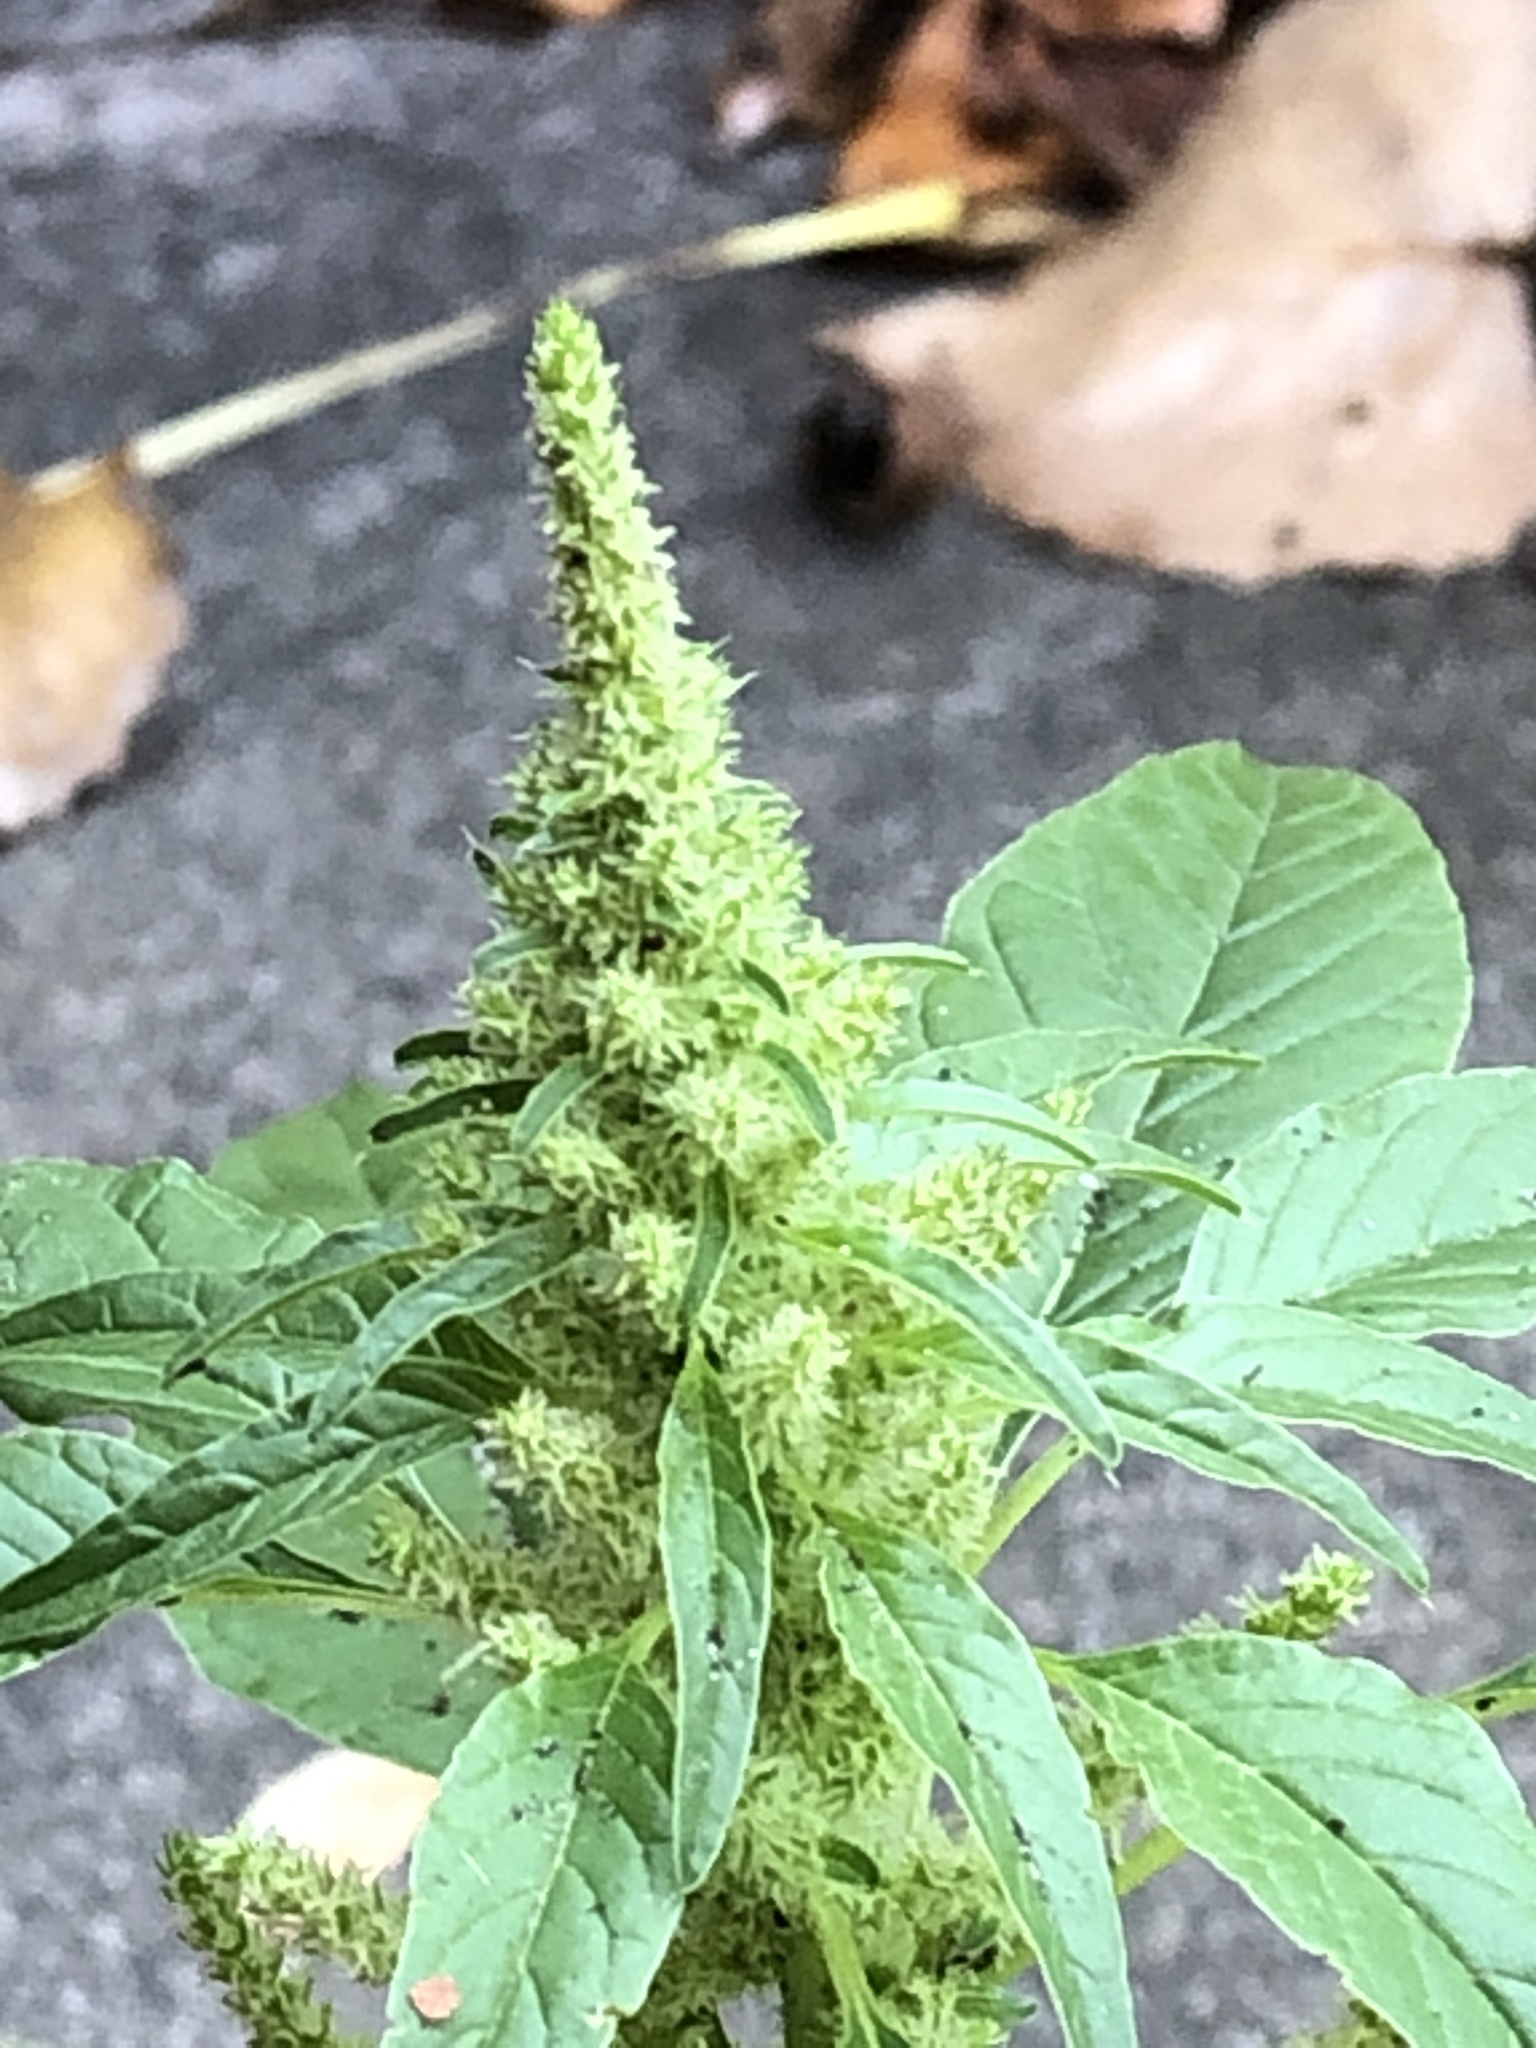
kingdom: Plantae
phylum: Tracheophyta
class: Magnoliopsida
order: Caryophyllales
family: Amaranthaceae
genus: Amaranthus
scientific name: Amaranthus retroflexus
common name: Redroot amaranth
